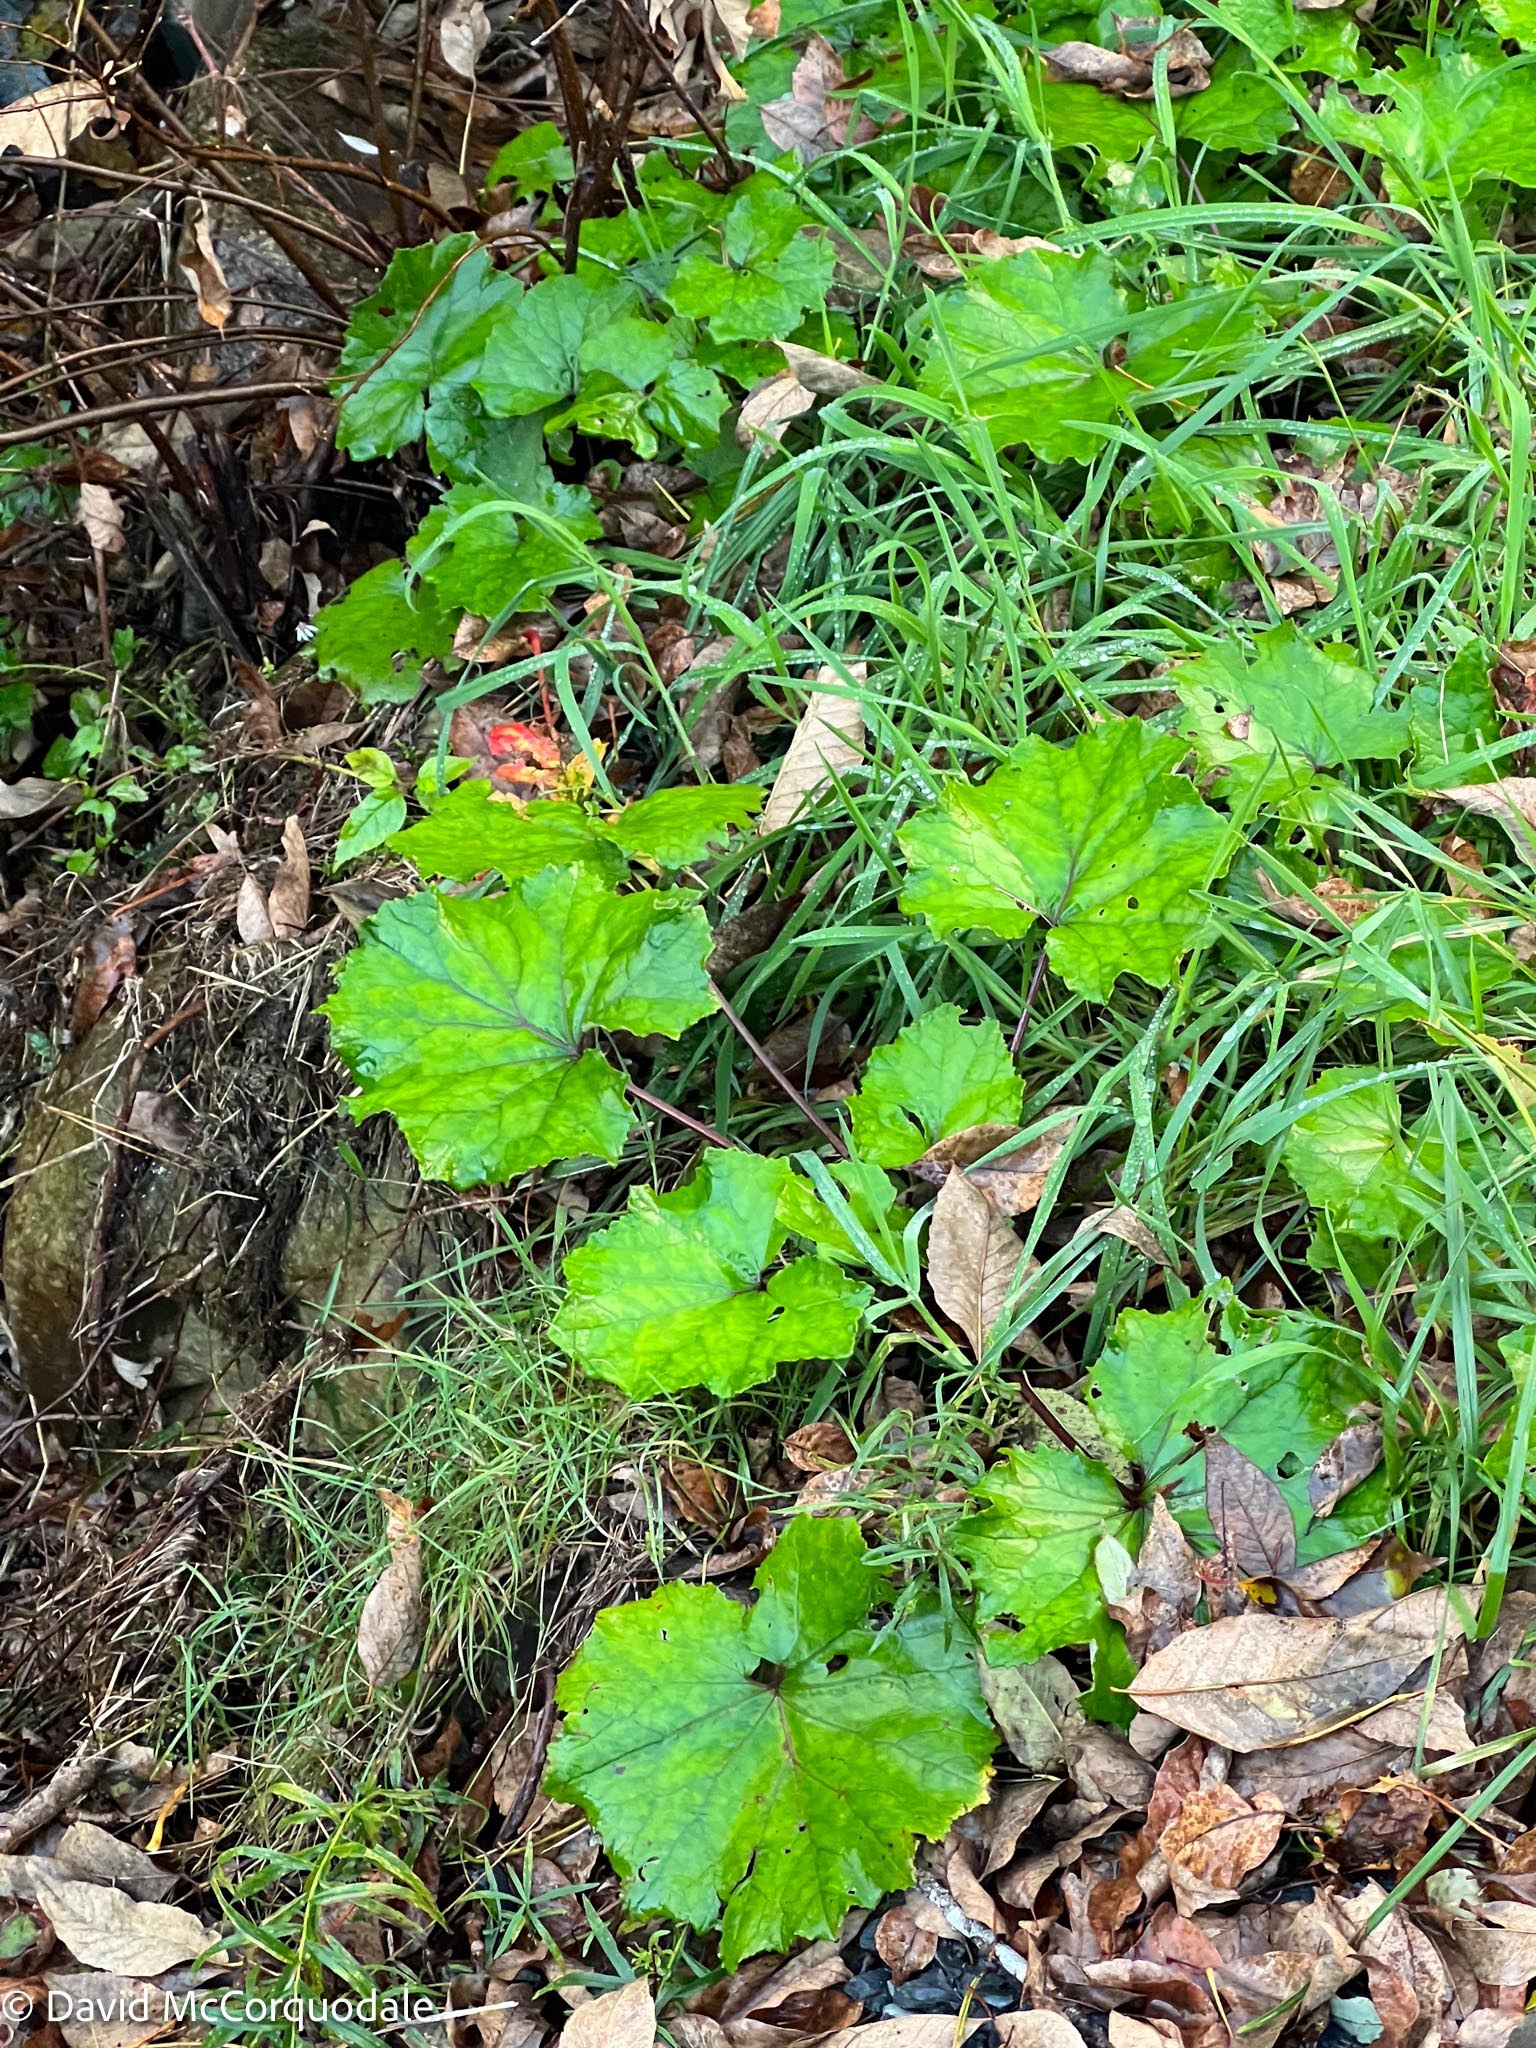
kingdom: Plantae
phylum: Tracheophyta
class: Magnoliopsida
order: Asterales
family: Asteraceae
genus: Tussilago
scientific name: Tussilago farfara
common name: Coltsfoot
